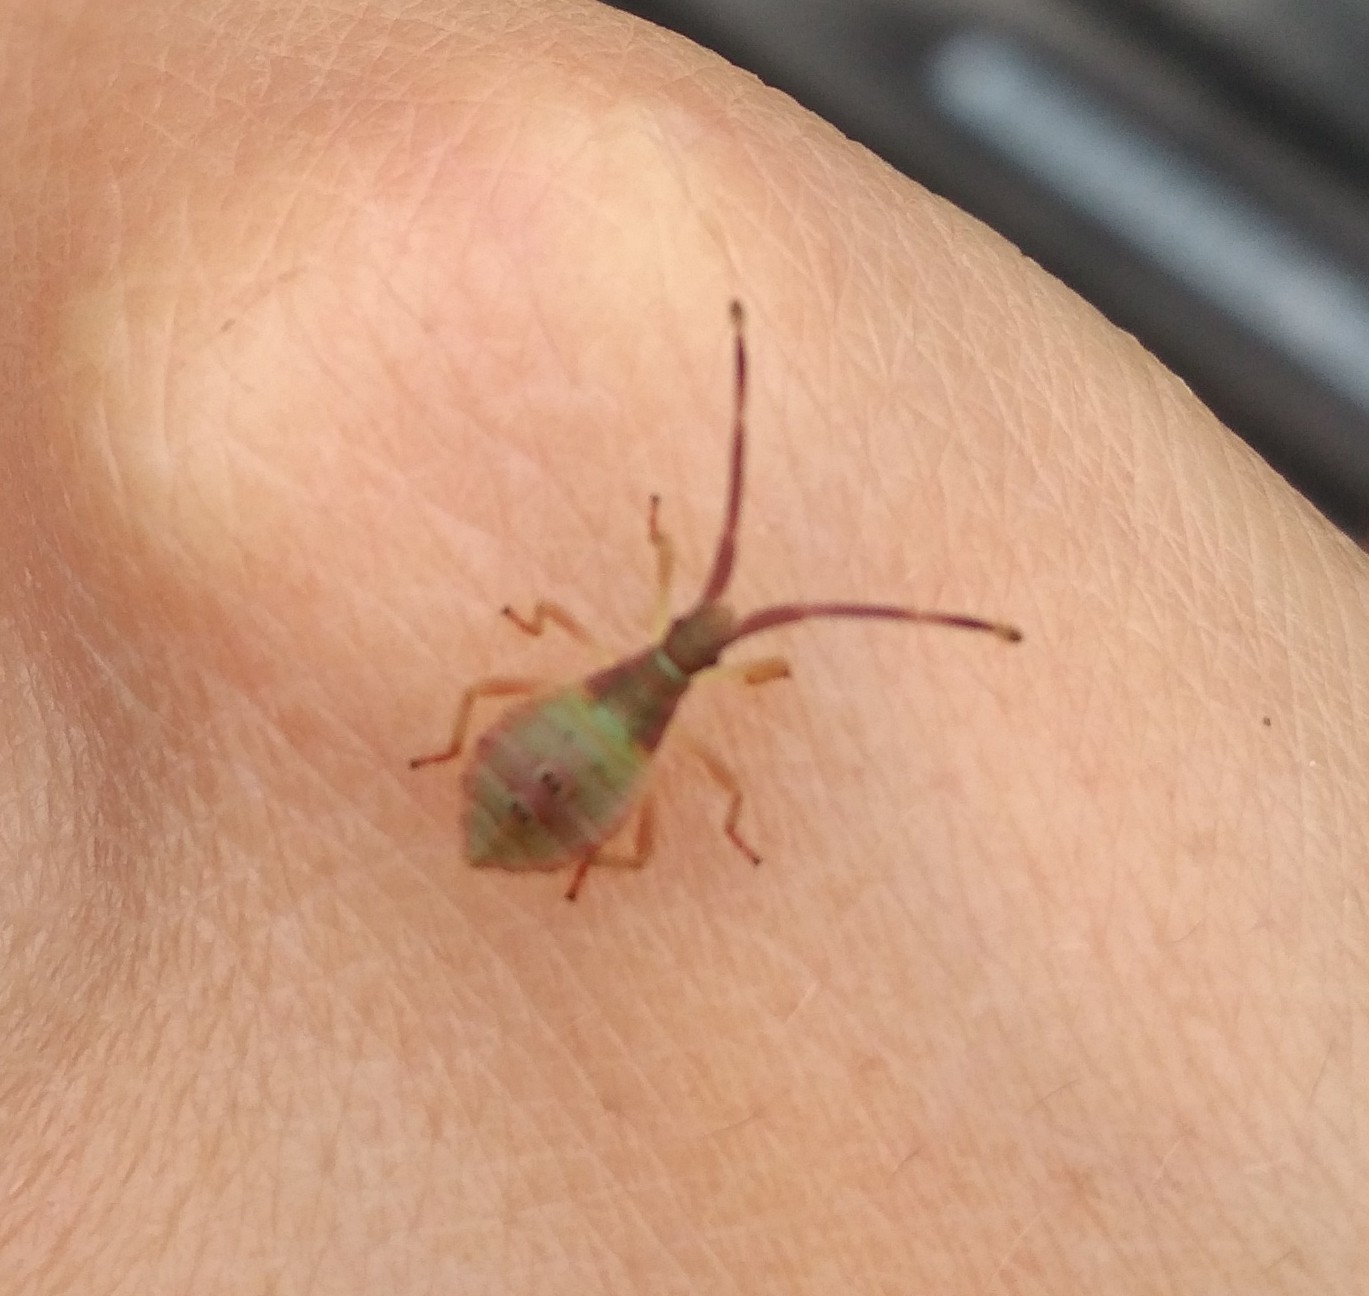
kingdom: Animalia
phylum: Arthropoda
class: Insecta
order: Hemiptera
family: Coreidae
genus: Gonocerus
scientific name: Gonocerus acuteangulatus
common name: Box bug
